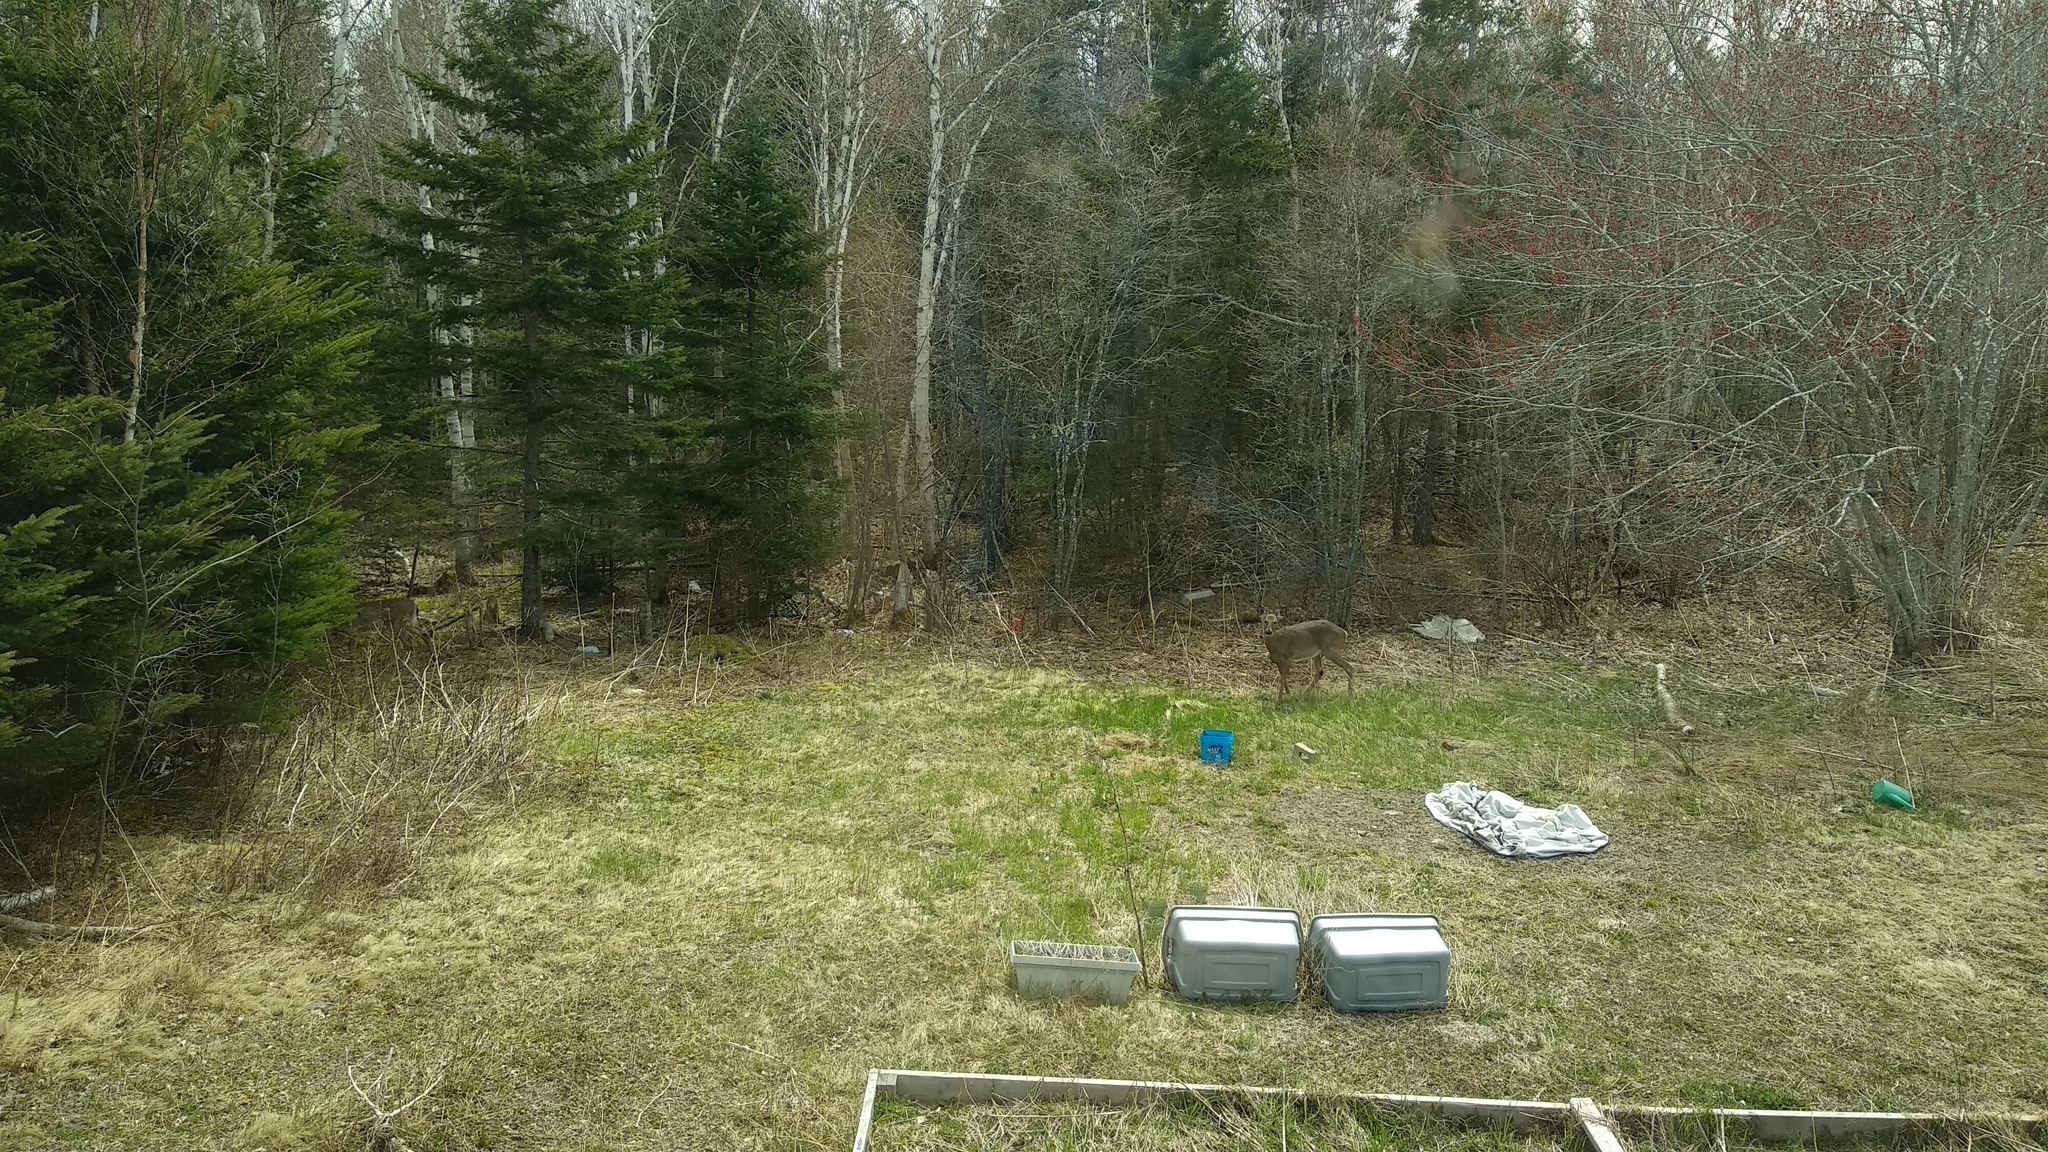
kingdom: Animalia
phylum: Chordata
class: Mammalia
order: Artiodactyla
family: Cervidae
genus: Odocoileus
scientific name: Odocoileus virginianus
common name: White-tailed deer
